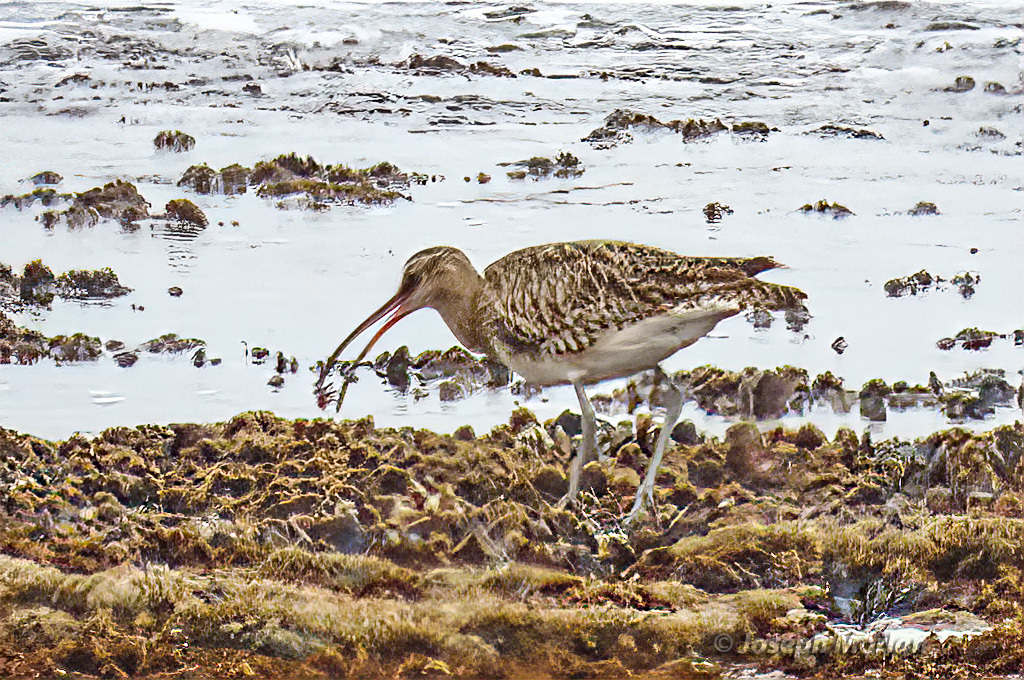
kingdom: Animalia
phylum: Chordata
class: Aves
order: Charadriiformes
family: Scolopacidae
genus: Numenius
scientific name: Numenius phaeopus
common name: Whimbrel
